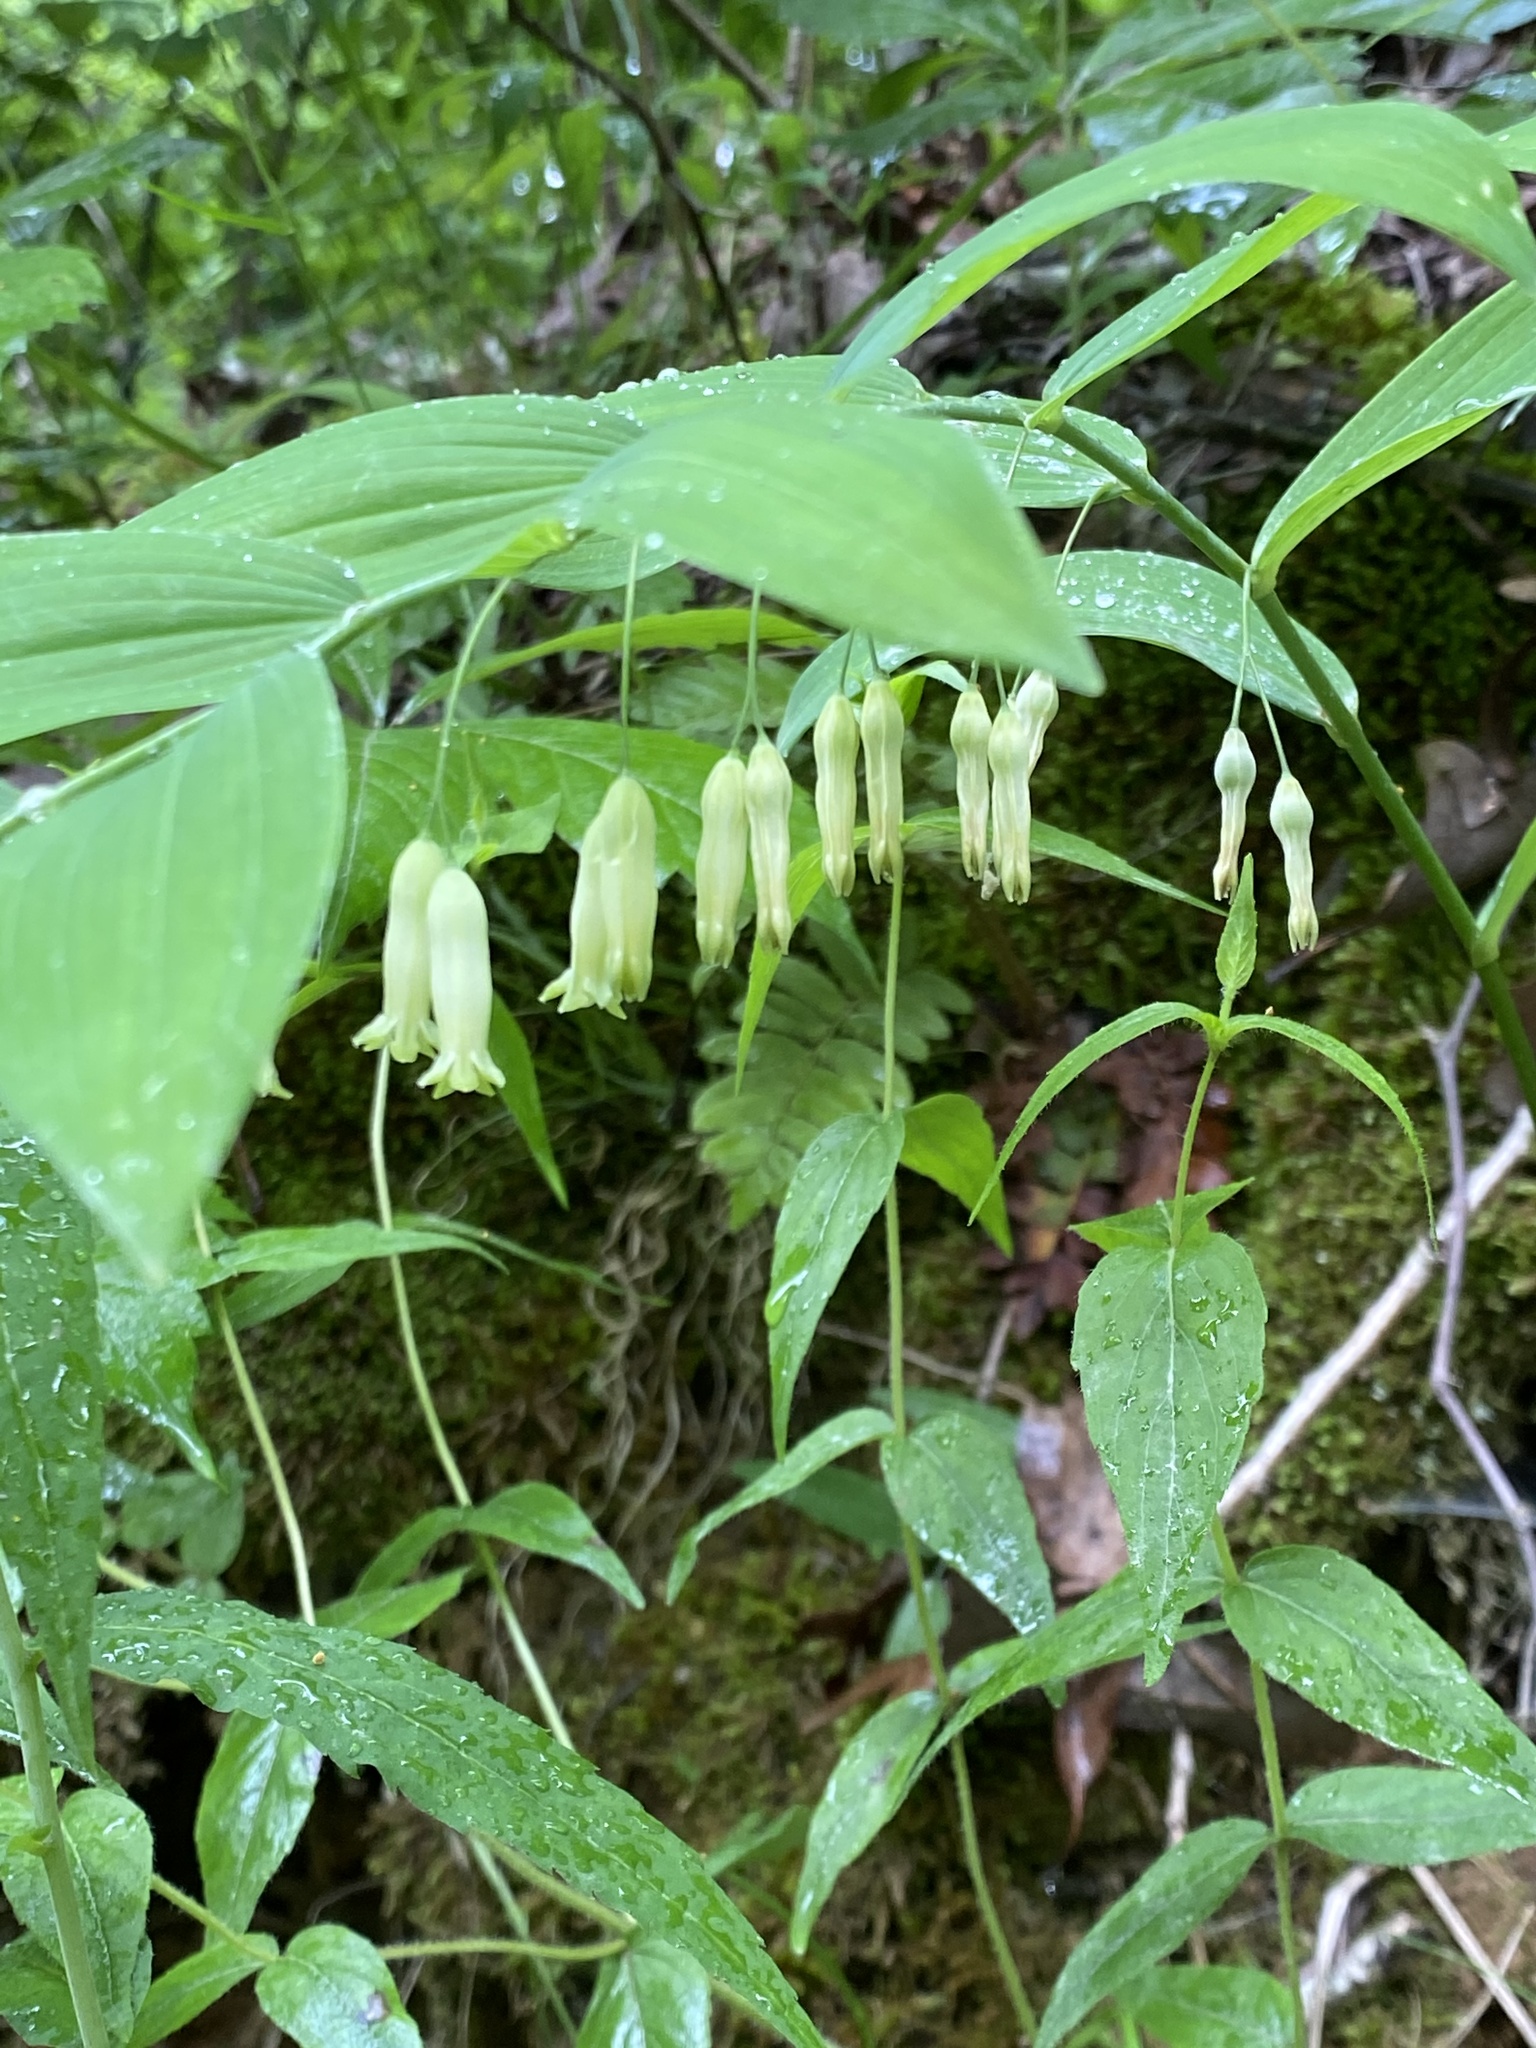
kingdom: Plantae
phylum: Tracheophyta
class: Liliopsida
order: Asparagales
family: Asparagaceae
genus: Polygonatum
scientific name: Polygonatum biflorum
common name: American solomon's-seal
